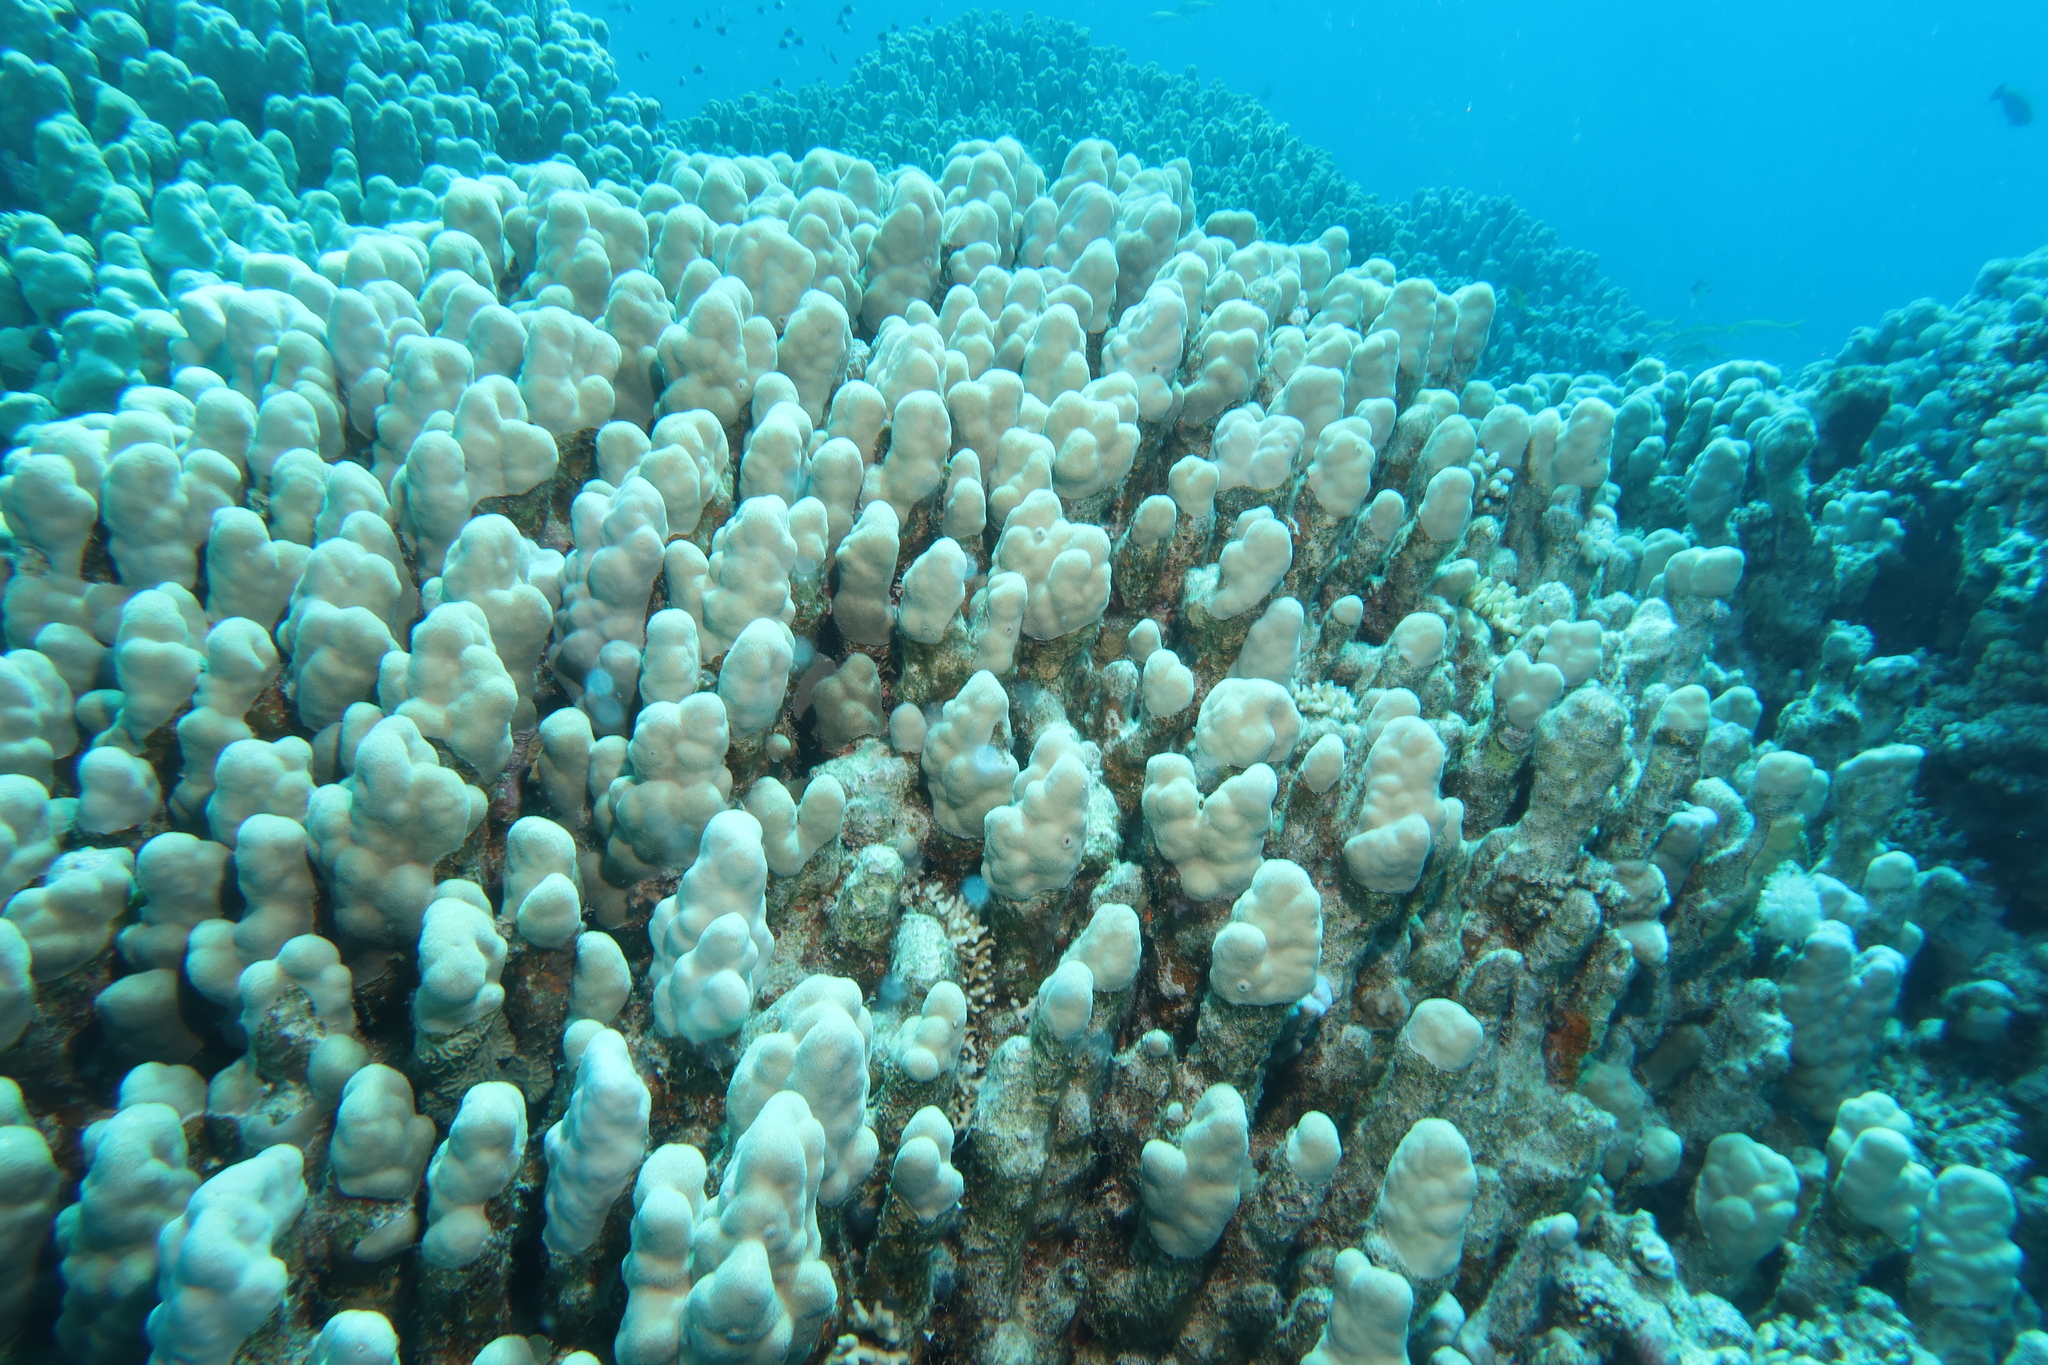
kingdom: Animalia
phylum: Cnidaria
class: Anthozoa
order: Scleractinia
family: Poritidae
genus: Porites
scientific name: Porites nodifera
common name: Hump coral
